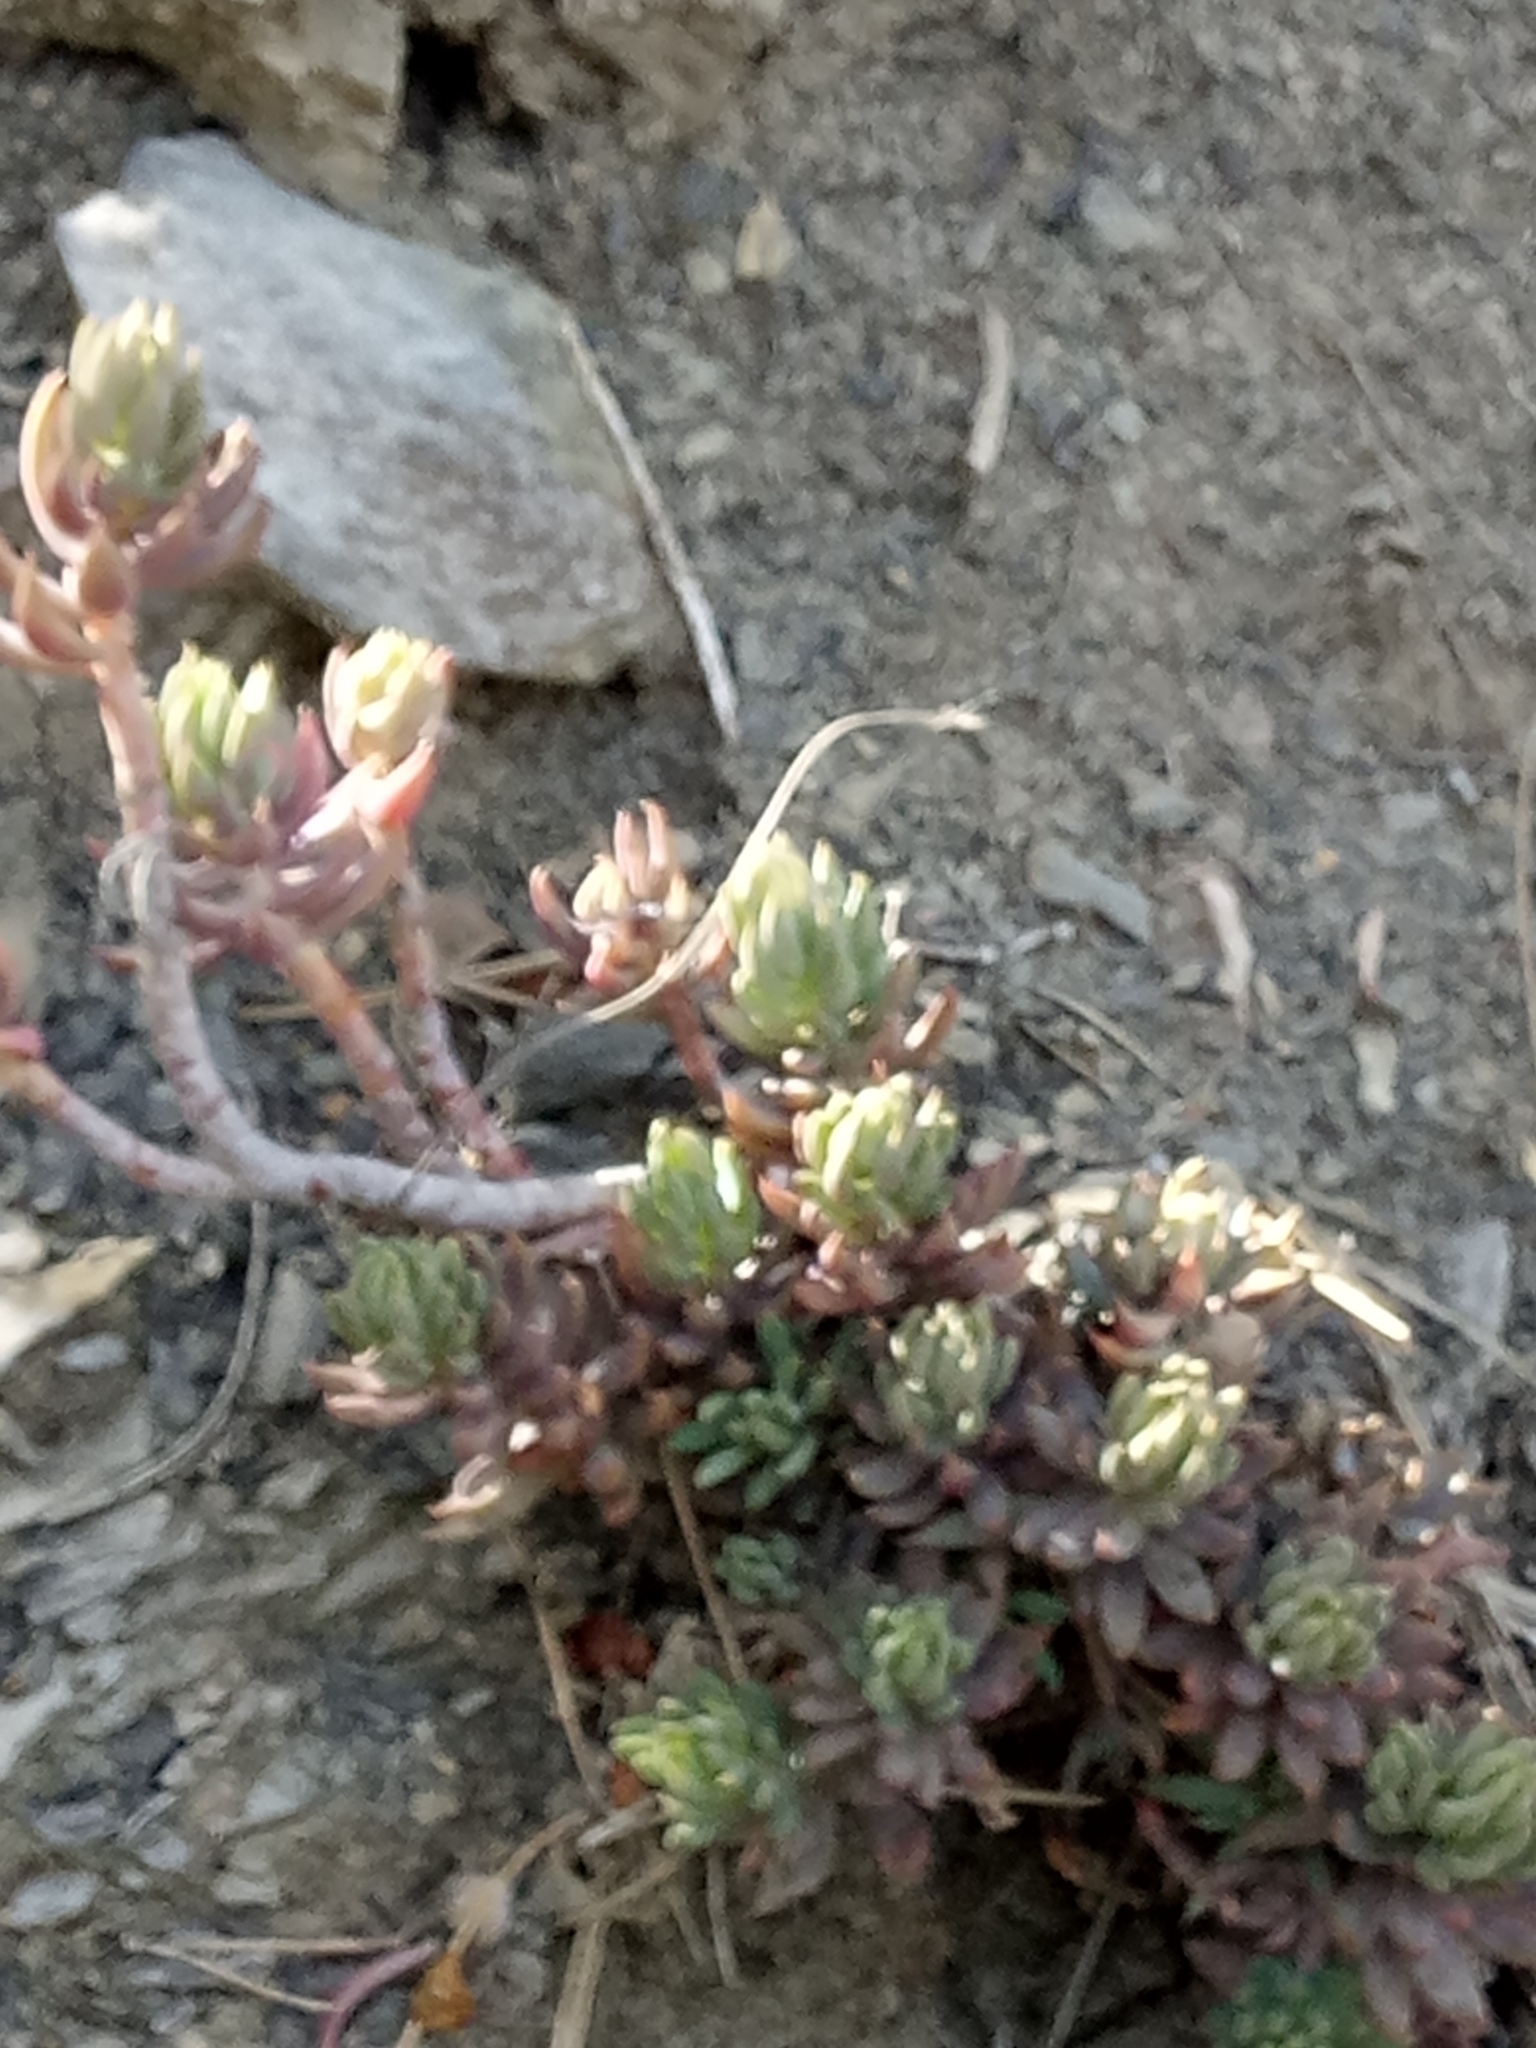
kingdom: Plantae
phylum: Tracheophyta
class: Magnoliopsida
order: Saxifragales
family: Crassulaceae
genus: Petrosedum
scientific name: Petrosedum sediforme
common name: Pale stonecrop
